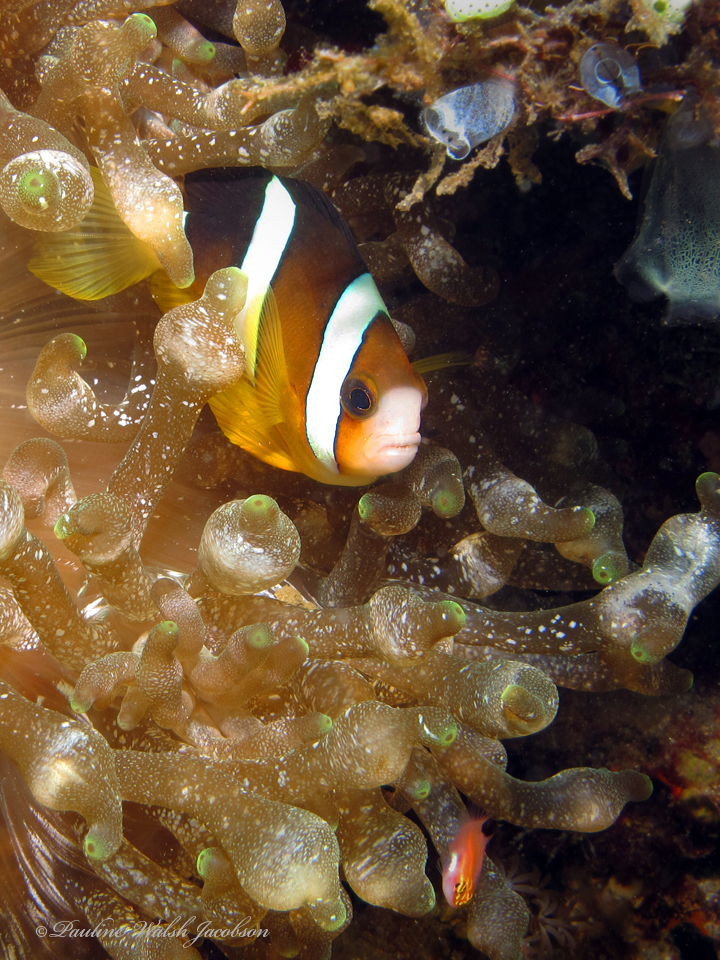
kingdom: Animalia
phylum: Chordata
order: Perciformes
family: Pomacentridae
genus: Amphiprion
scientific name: Amphiprion clarkii
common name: Clark's anemonefish
